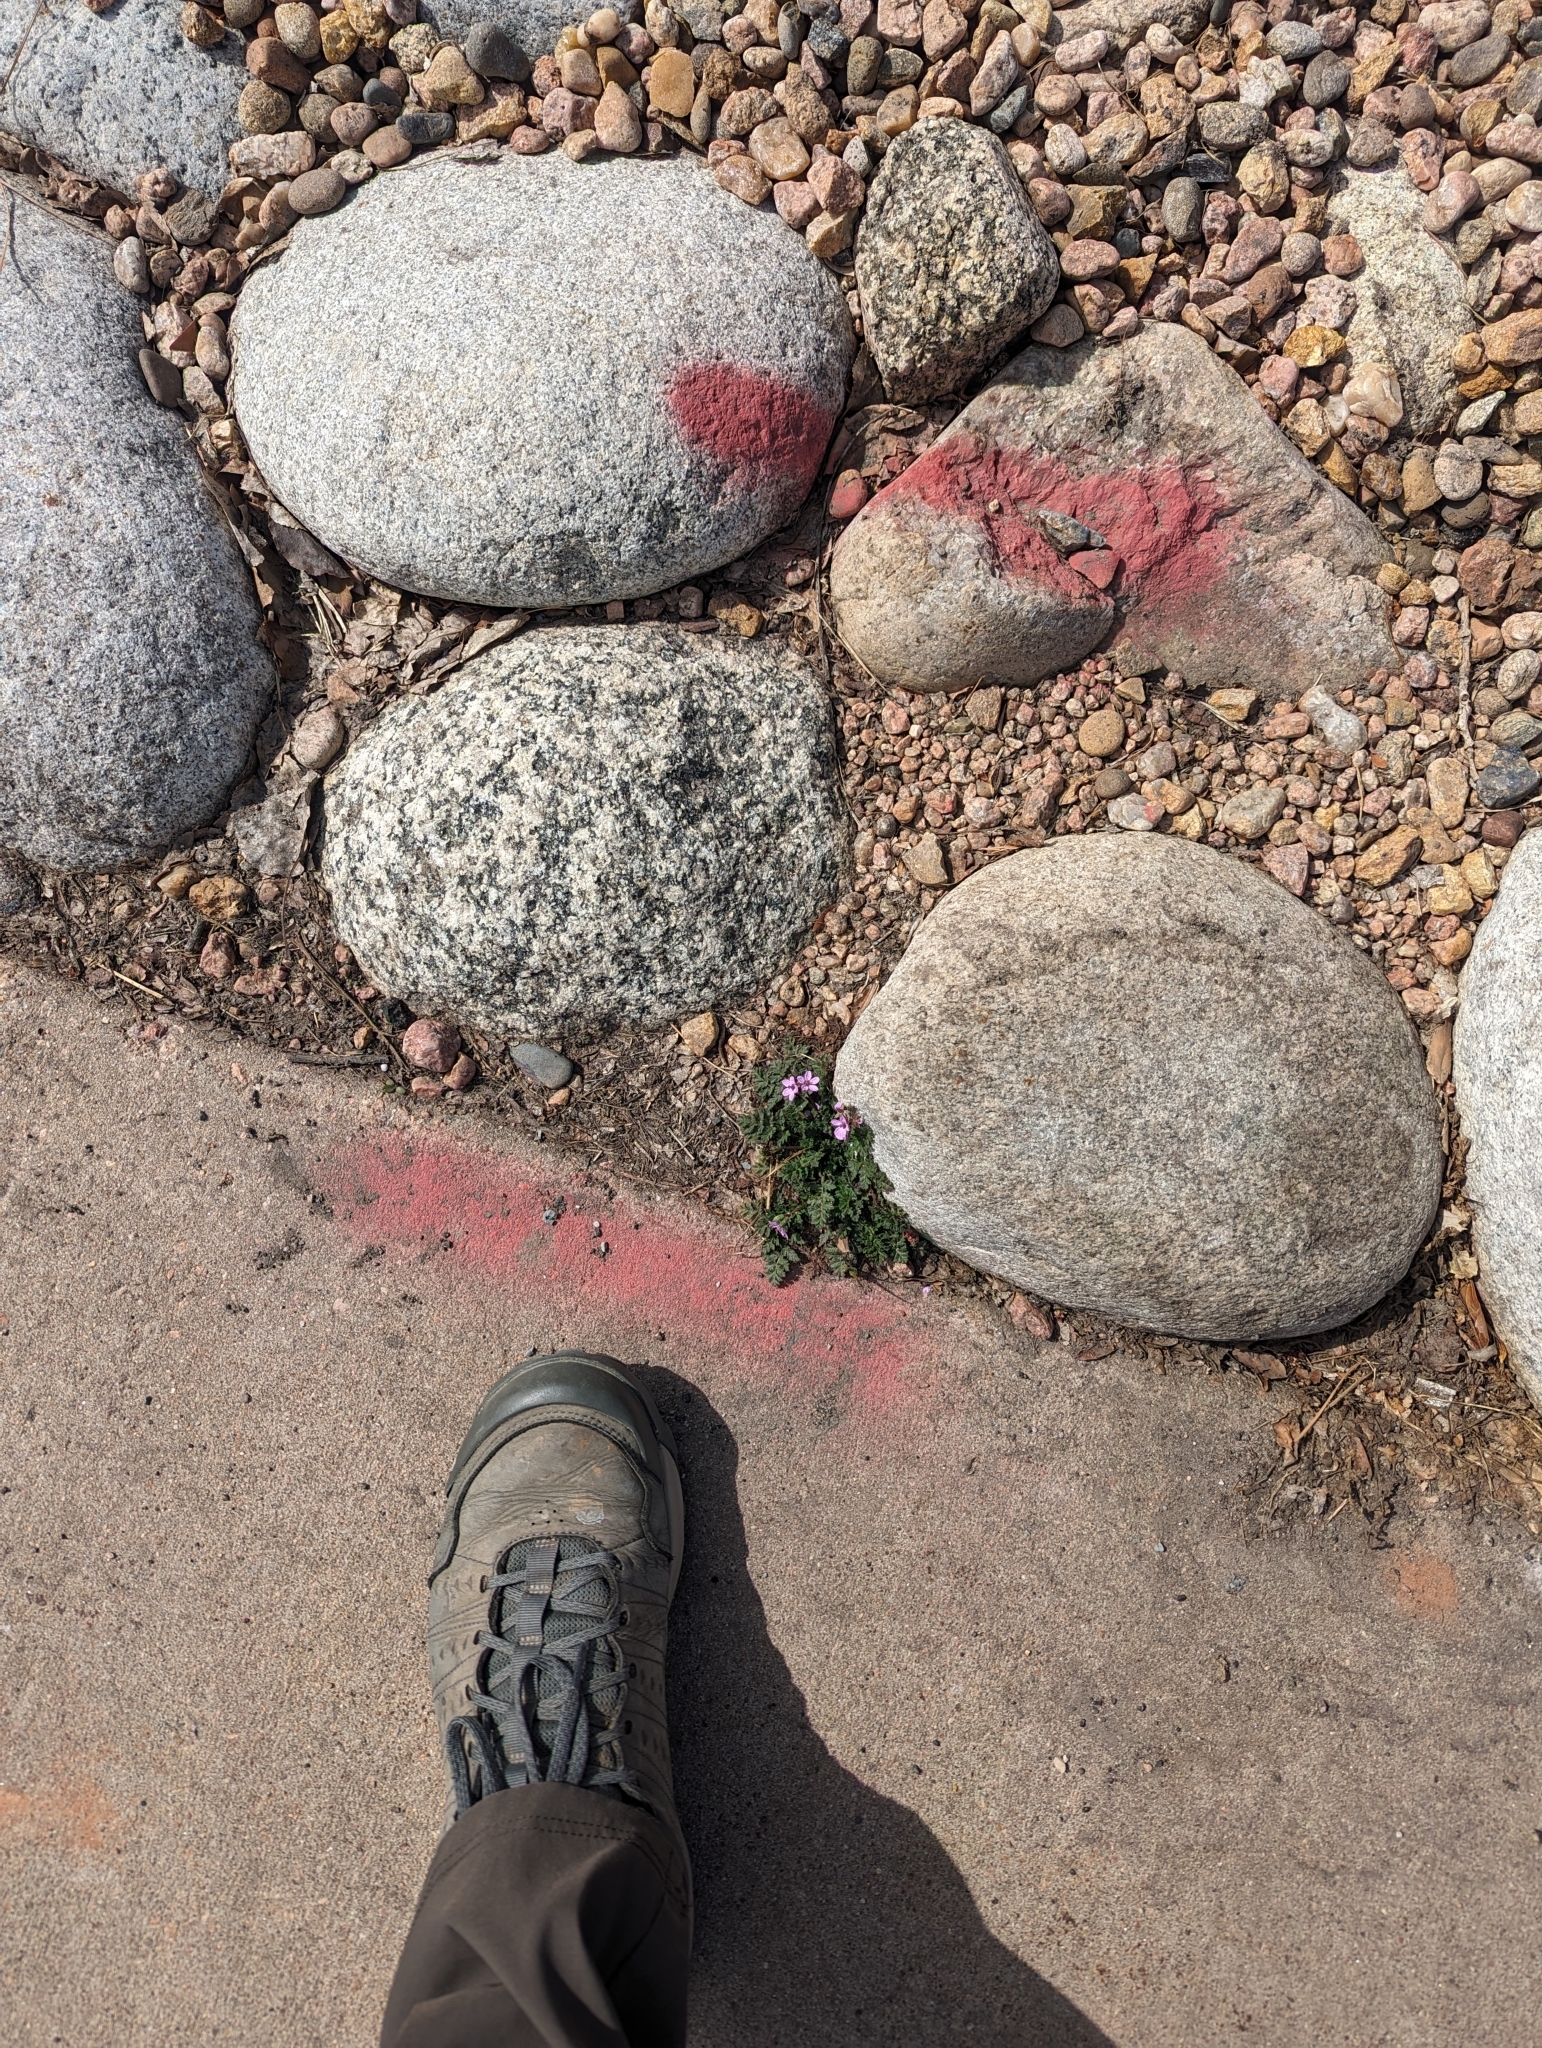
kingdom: Plantae
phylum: Tracheophyta
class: Magnoliopsida
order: Geraniales
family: Geraniaceae
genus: Erodium
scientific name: Erodium cicutarium
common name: Common stork's-bill
